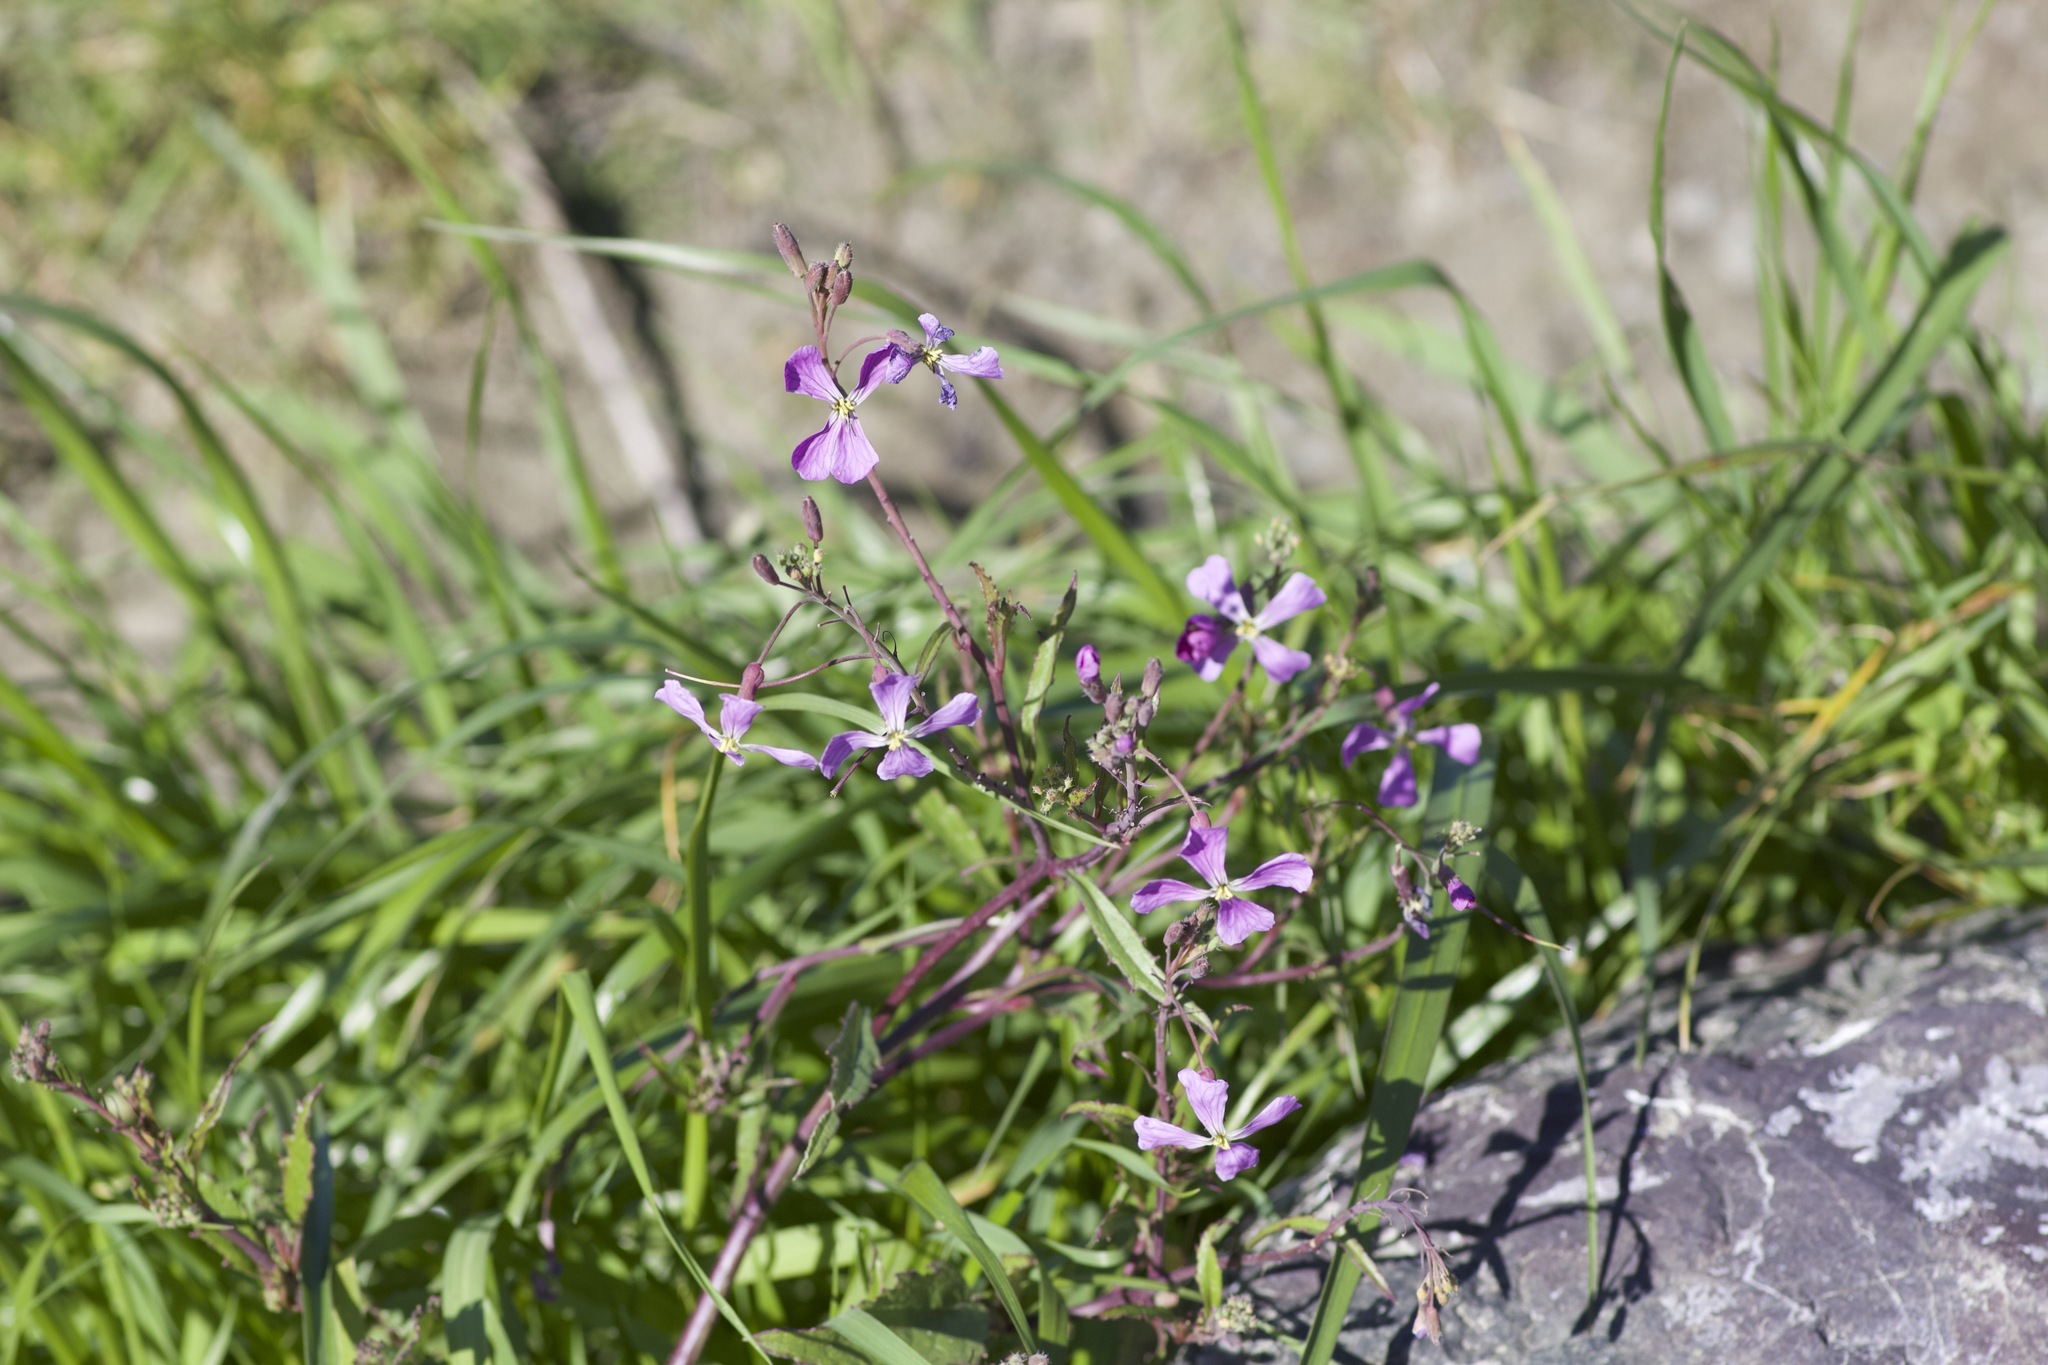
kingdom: Plantae
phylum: Tracheophyta
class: Magnoliopsida
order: Brassicales
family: Brassicaceae
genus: Raphanus
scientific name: Raphanus sativus
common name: Cultivated radish
